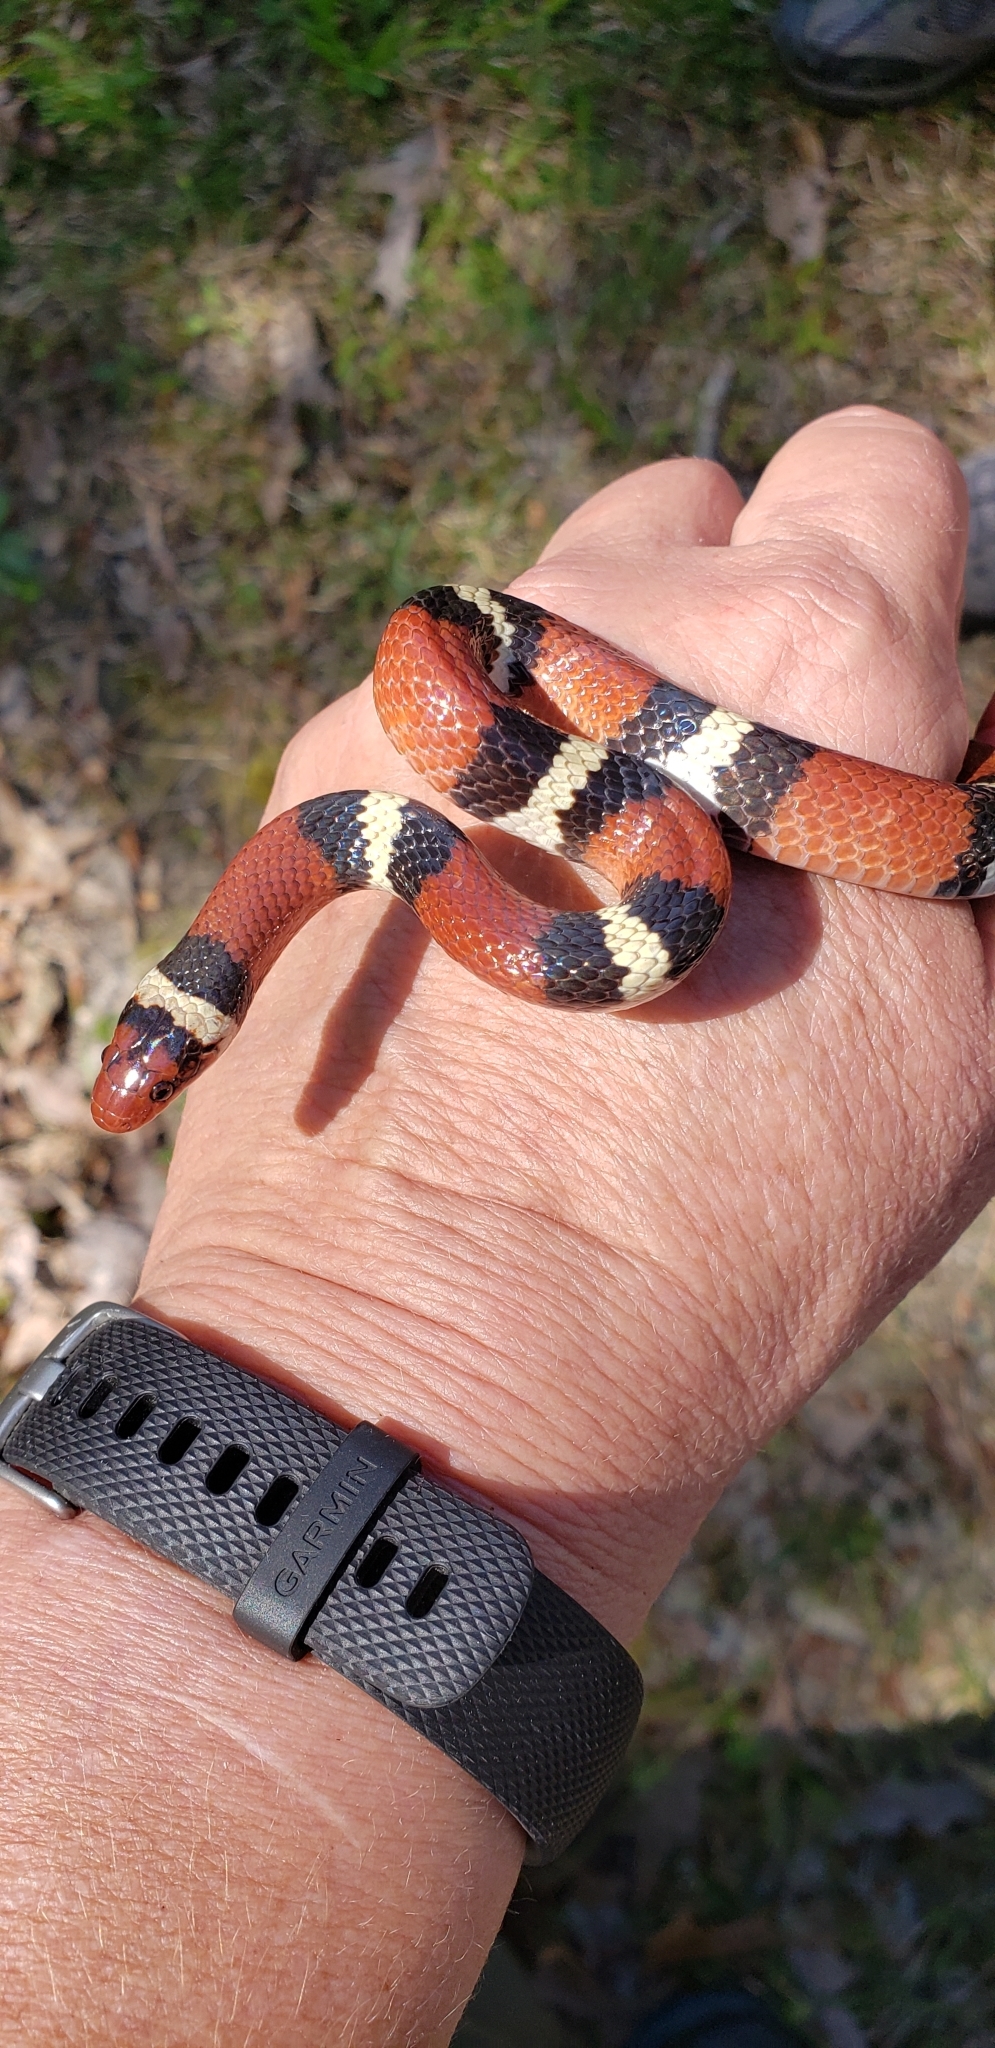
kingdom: Animalia
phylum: Chordata
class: Squamata
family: Colubridae
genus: Lampropeltis
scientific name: Lampropeltis elapsoides
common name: Scarlet kingsnake
